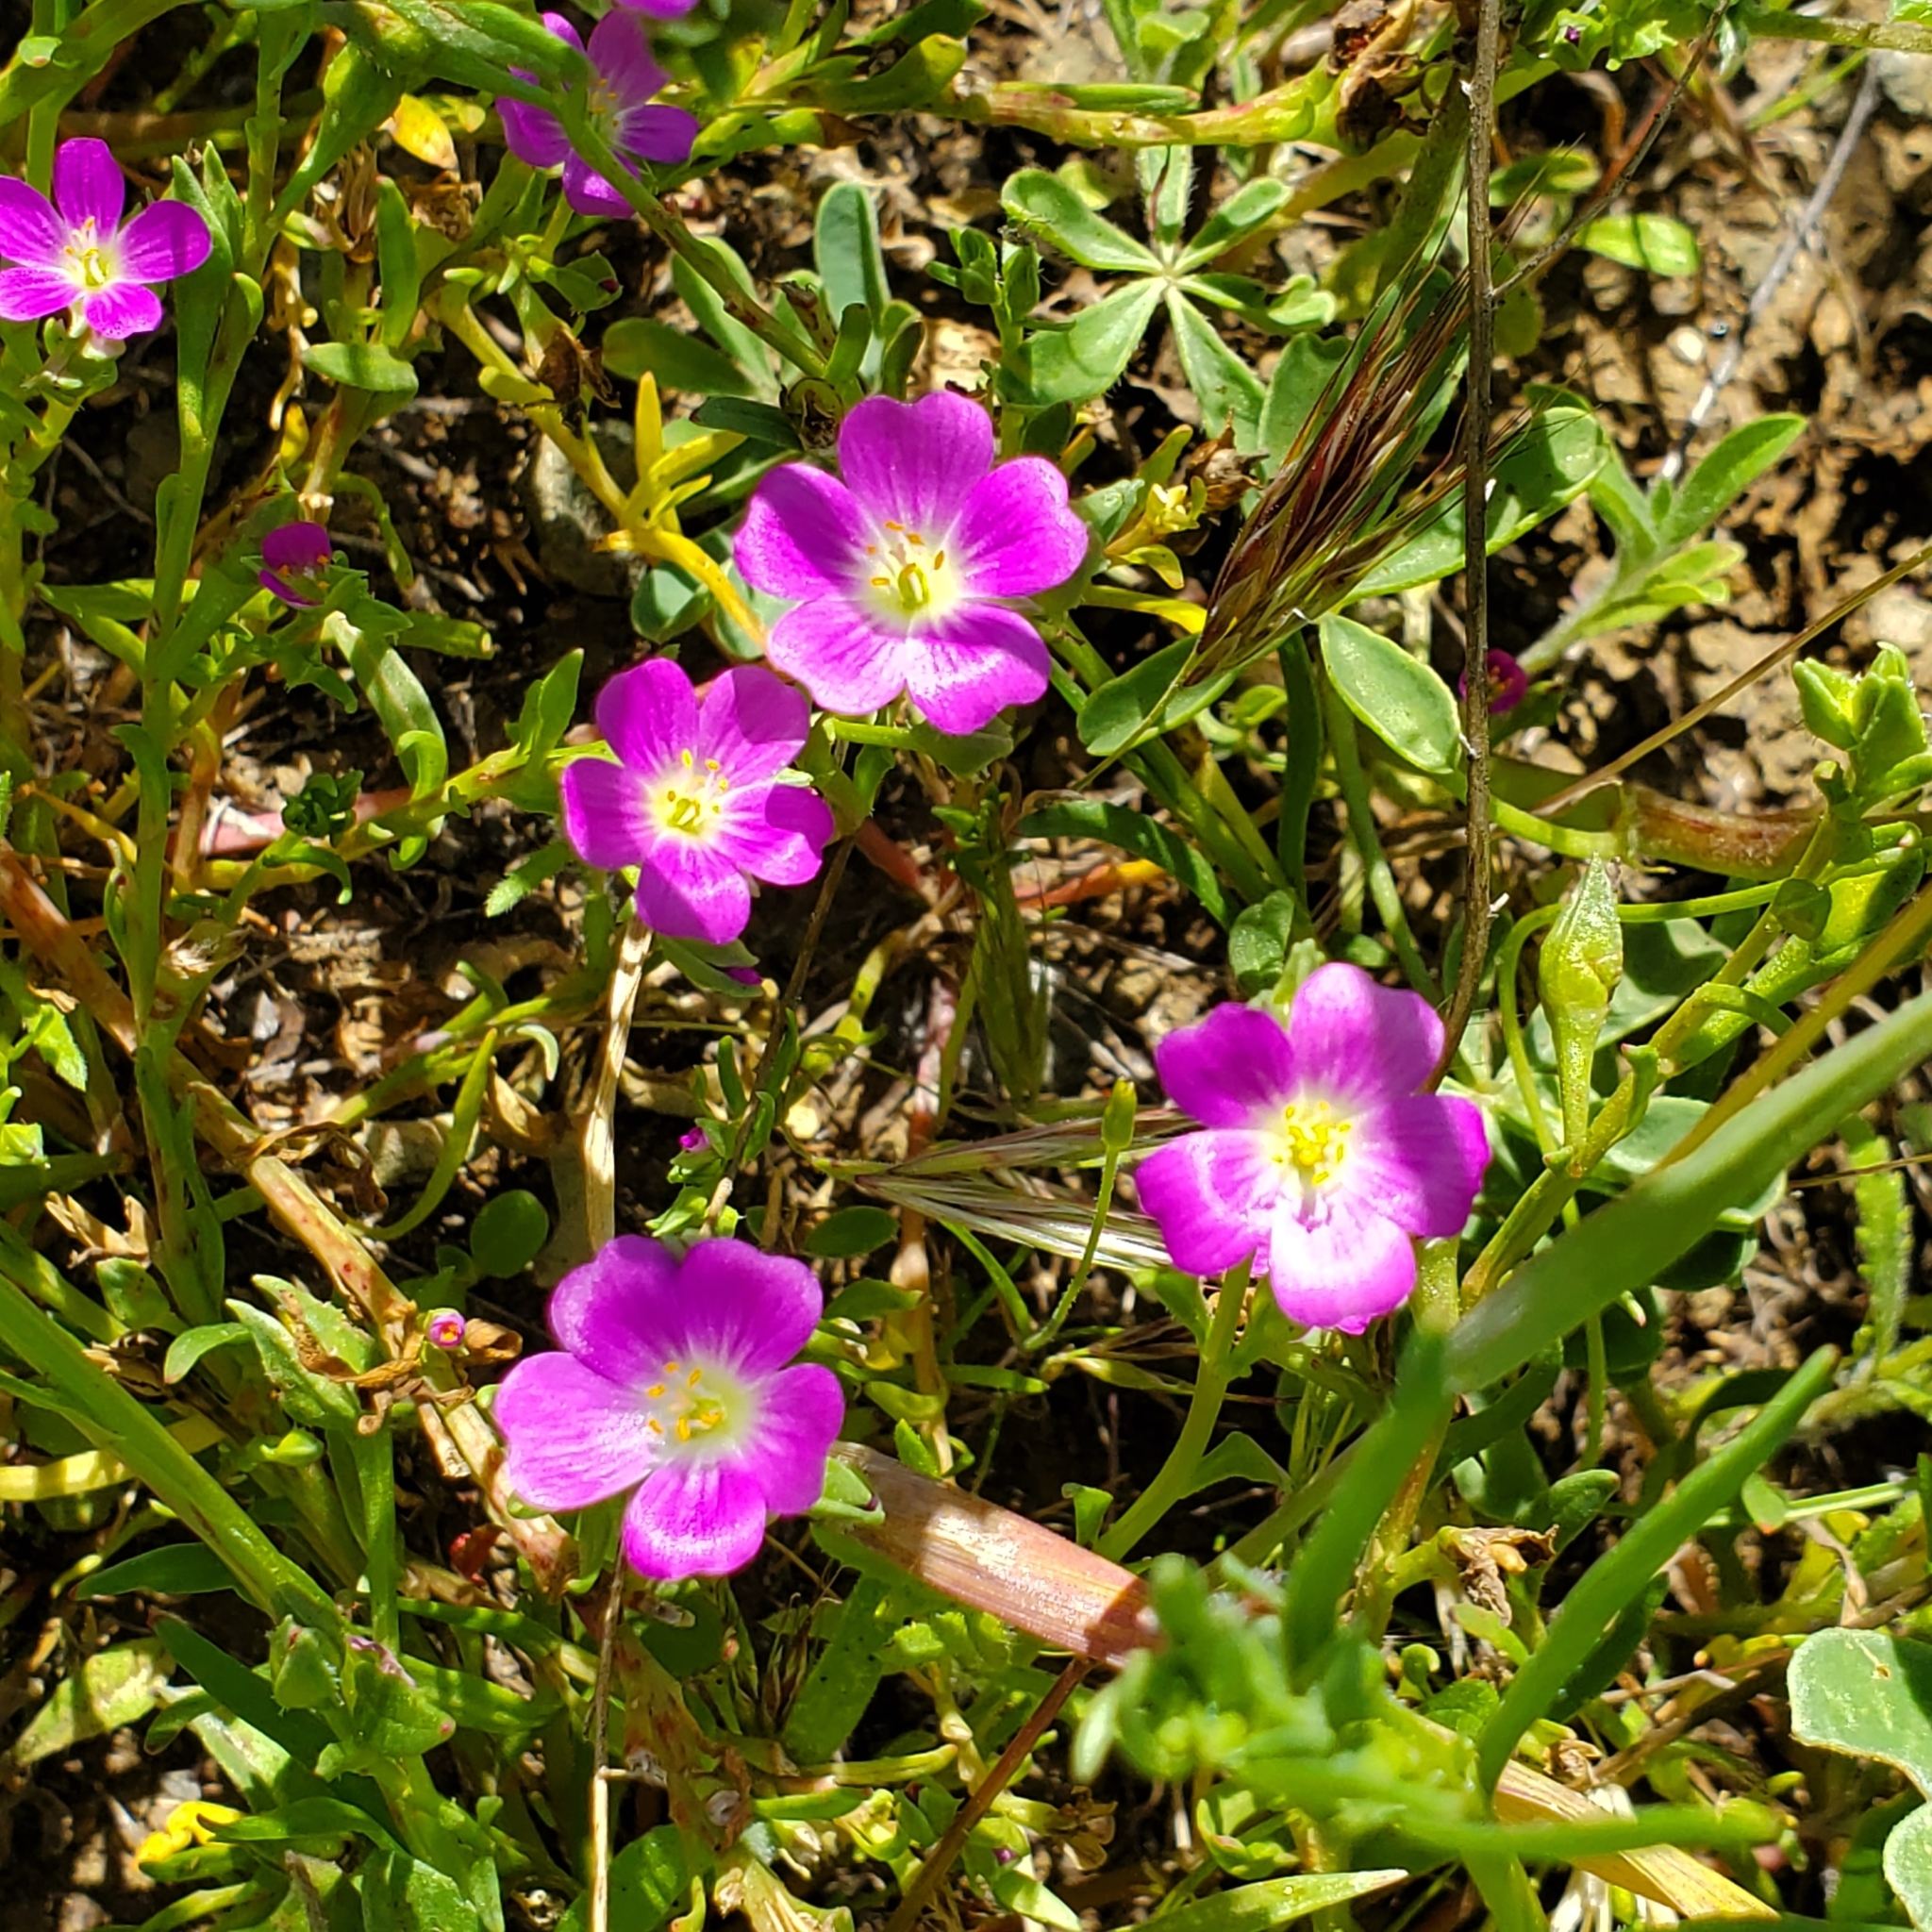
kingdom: Plantae
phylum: Tracheophyta
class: Magnoliopsida
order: Caryophyllales
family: Montiaceae
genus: Calandrinia
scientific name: Calandrinia menziesii
